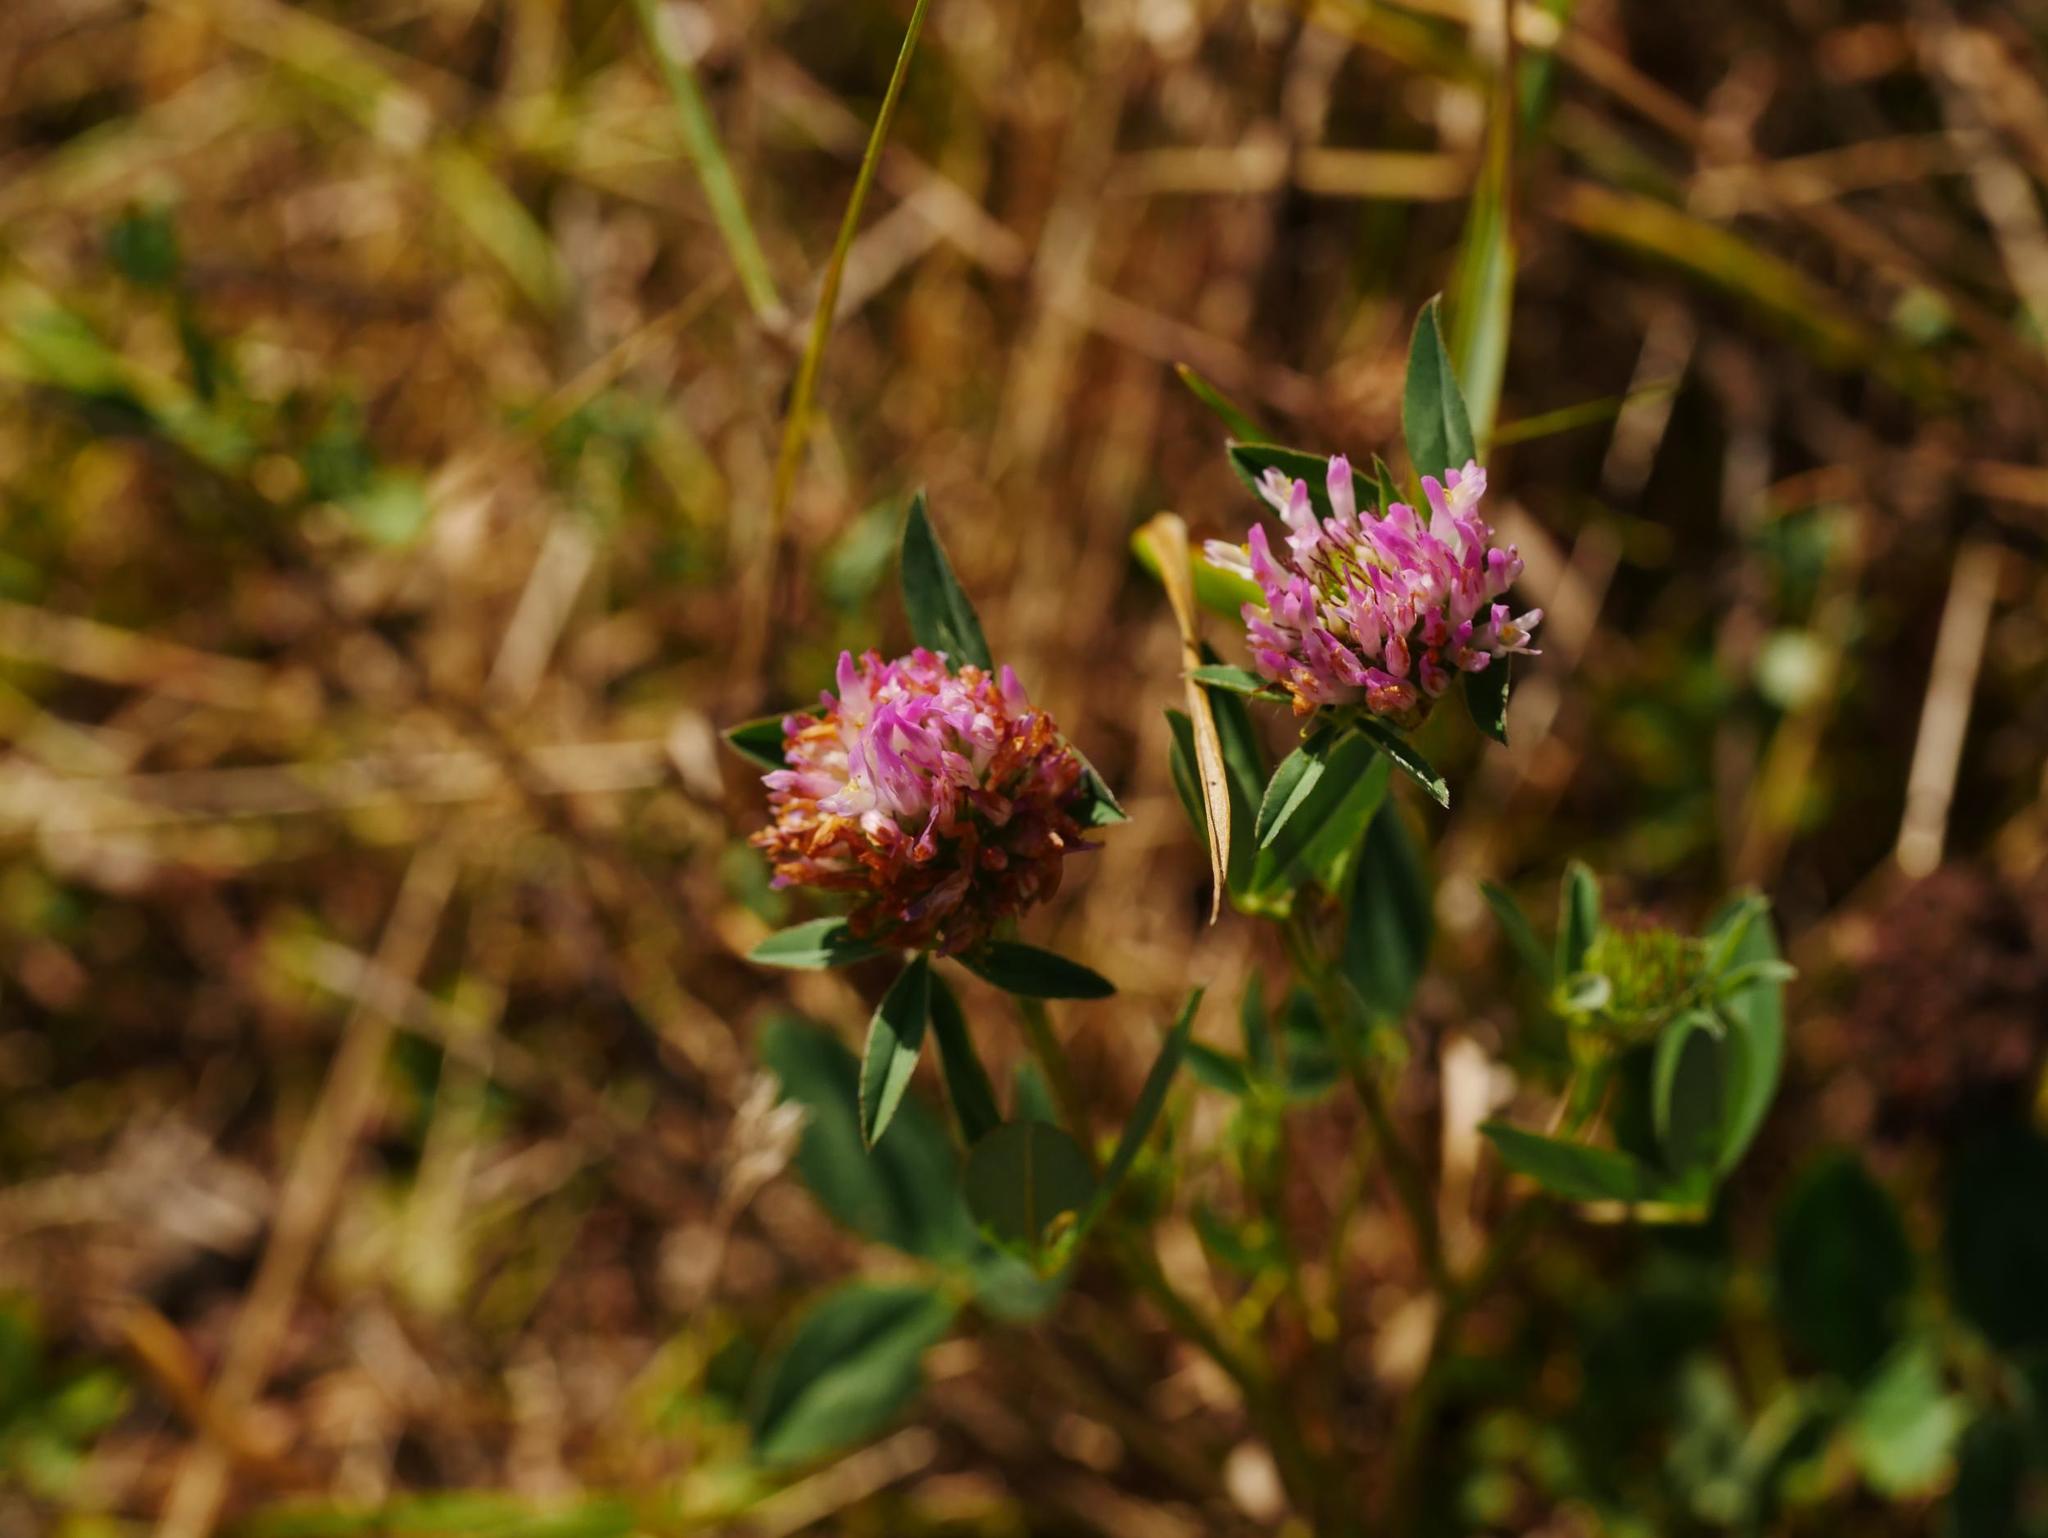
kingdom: Plantae
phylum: Tracheophyta
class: Magnoliopsida
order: Fabales
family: Fabaceae
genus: Trifolium
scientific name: Trifolium medium
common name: Zigzag clover
